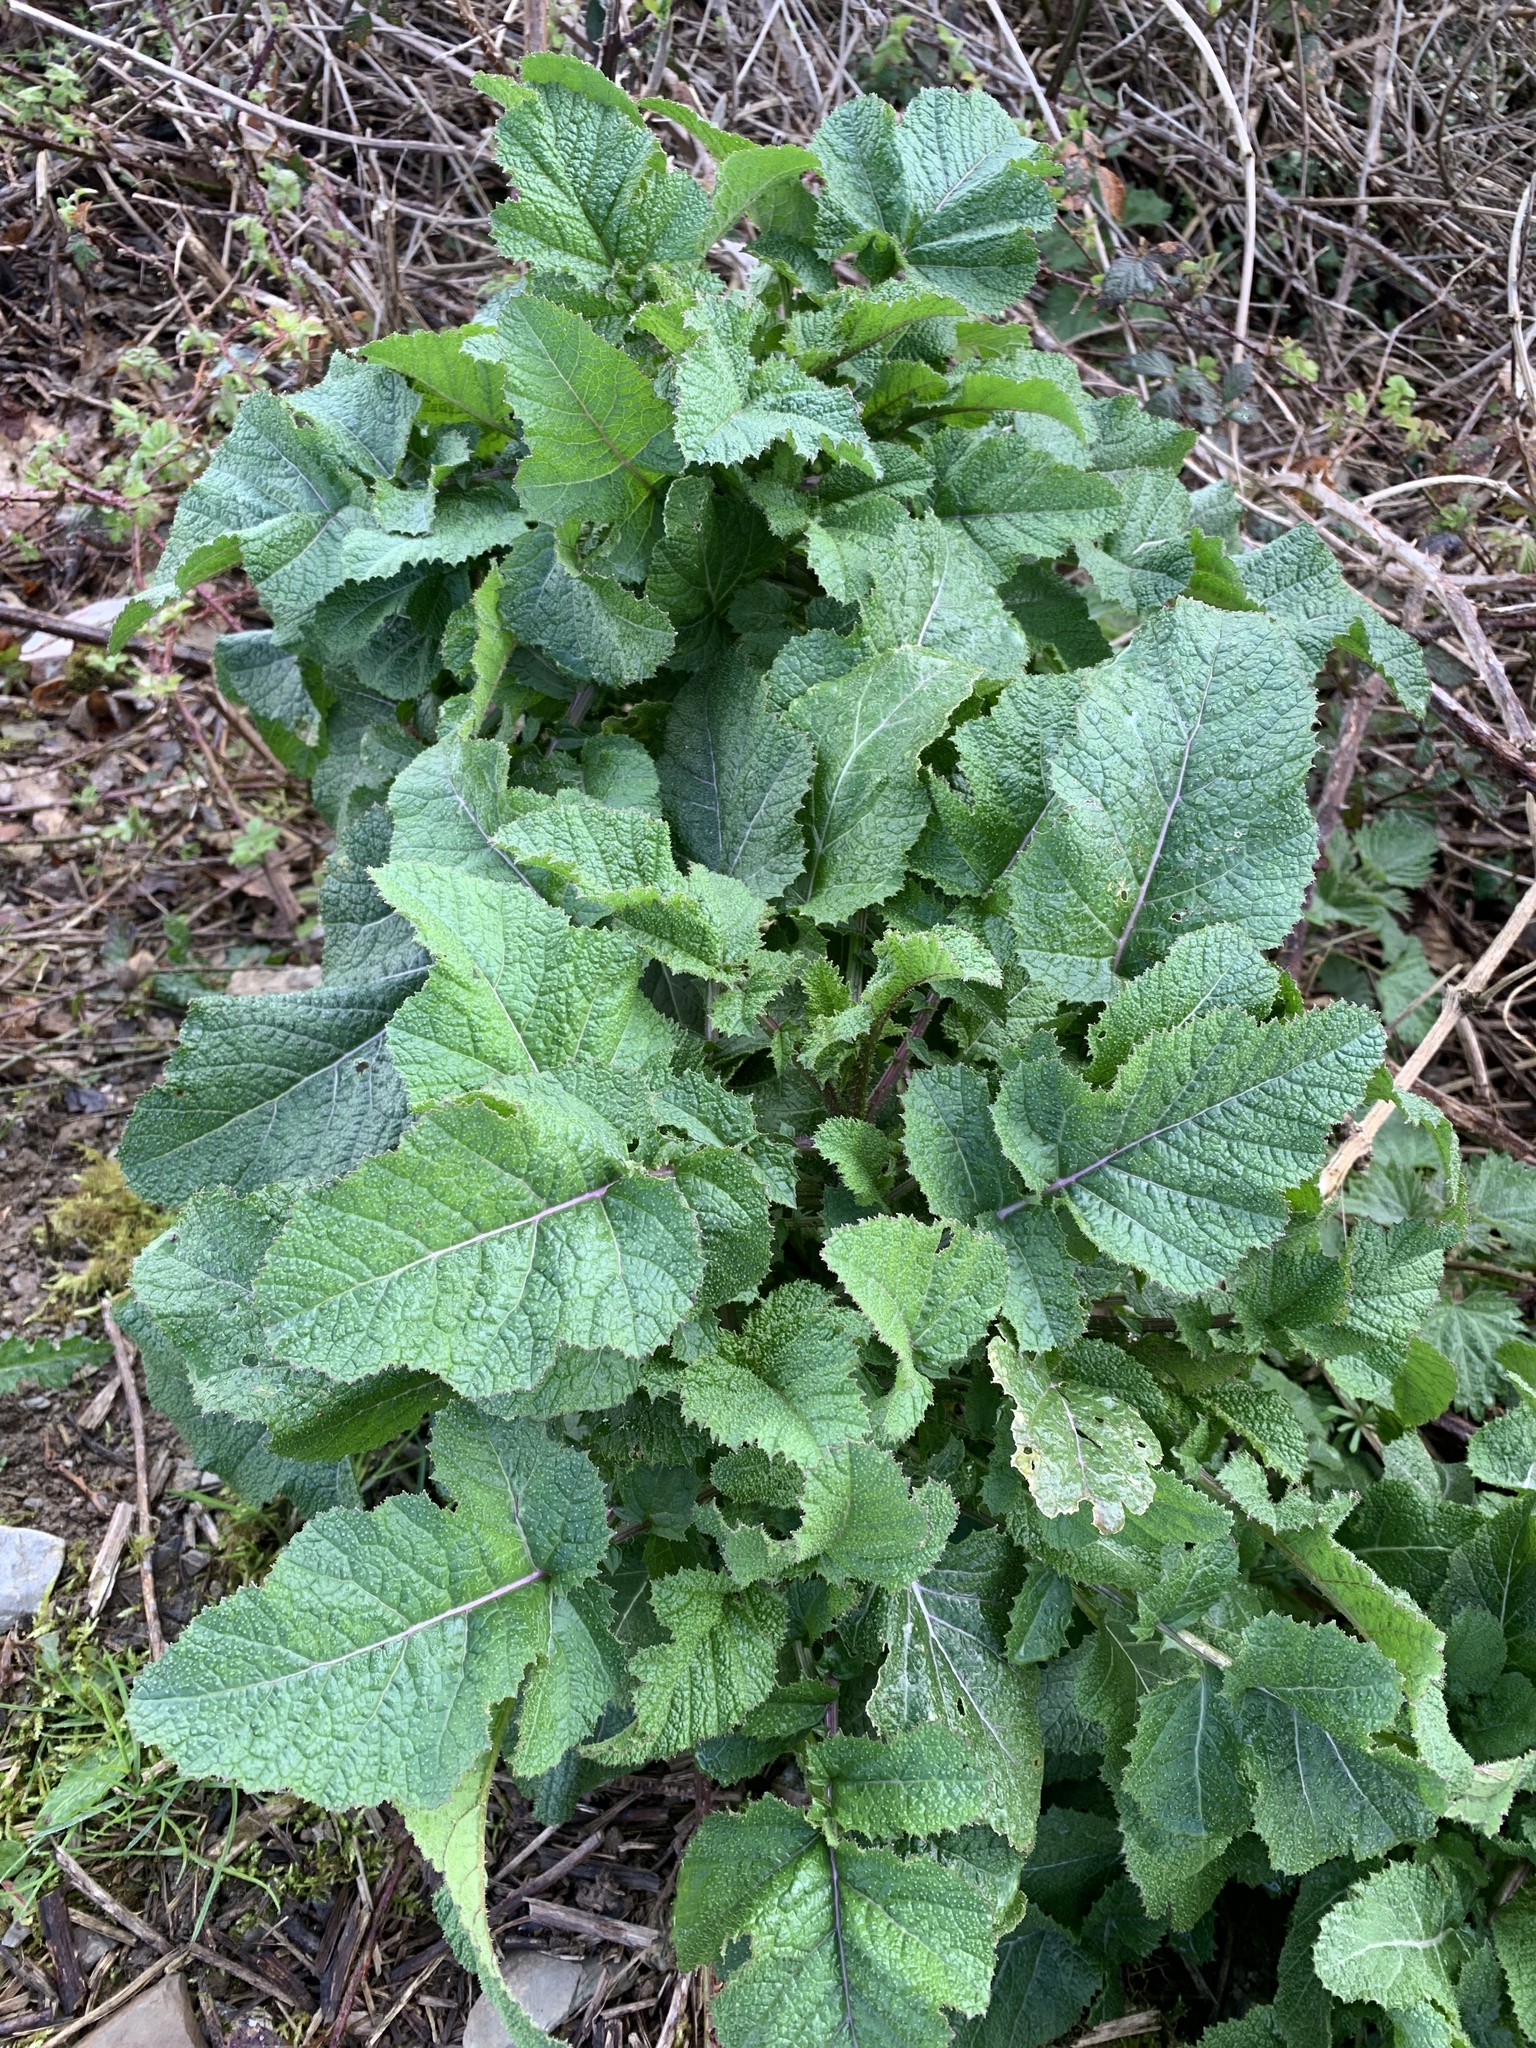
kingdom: Plantae
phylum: Tracheophyta
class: Magnoliopsida
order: Brassicales
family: Brassicaceae
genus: Brassica
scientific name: Brassica nigra
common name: Black mustard
